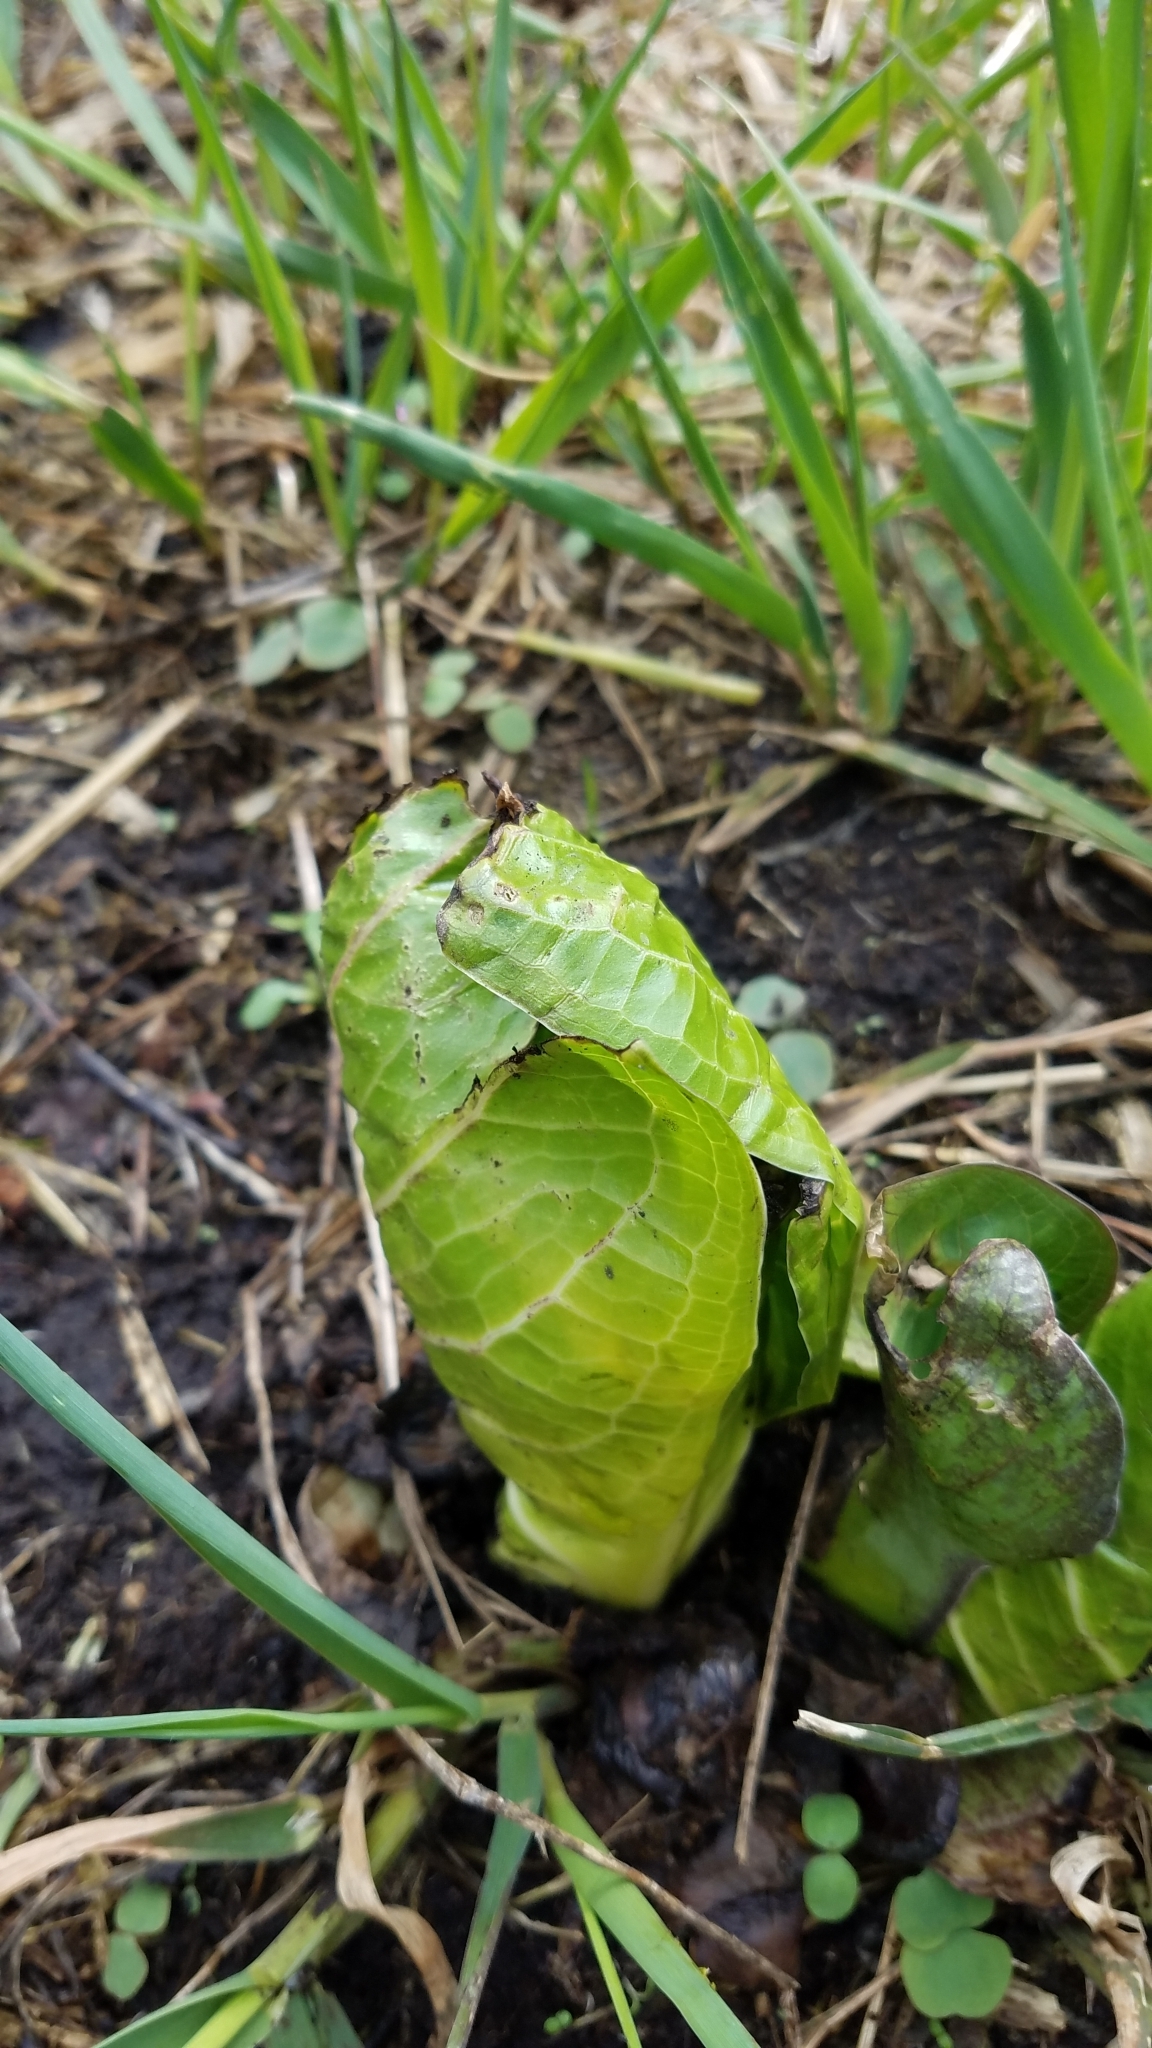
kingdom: Plantae
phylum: Tracheophyta
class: Liliopsida
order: Alismatales
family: Araceae
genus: Symplocarpus
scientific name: Symplocarpus foetidus
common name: Eastern skunk cabbage
